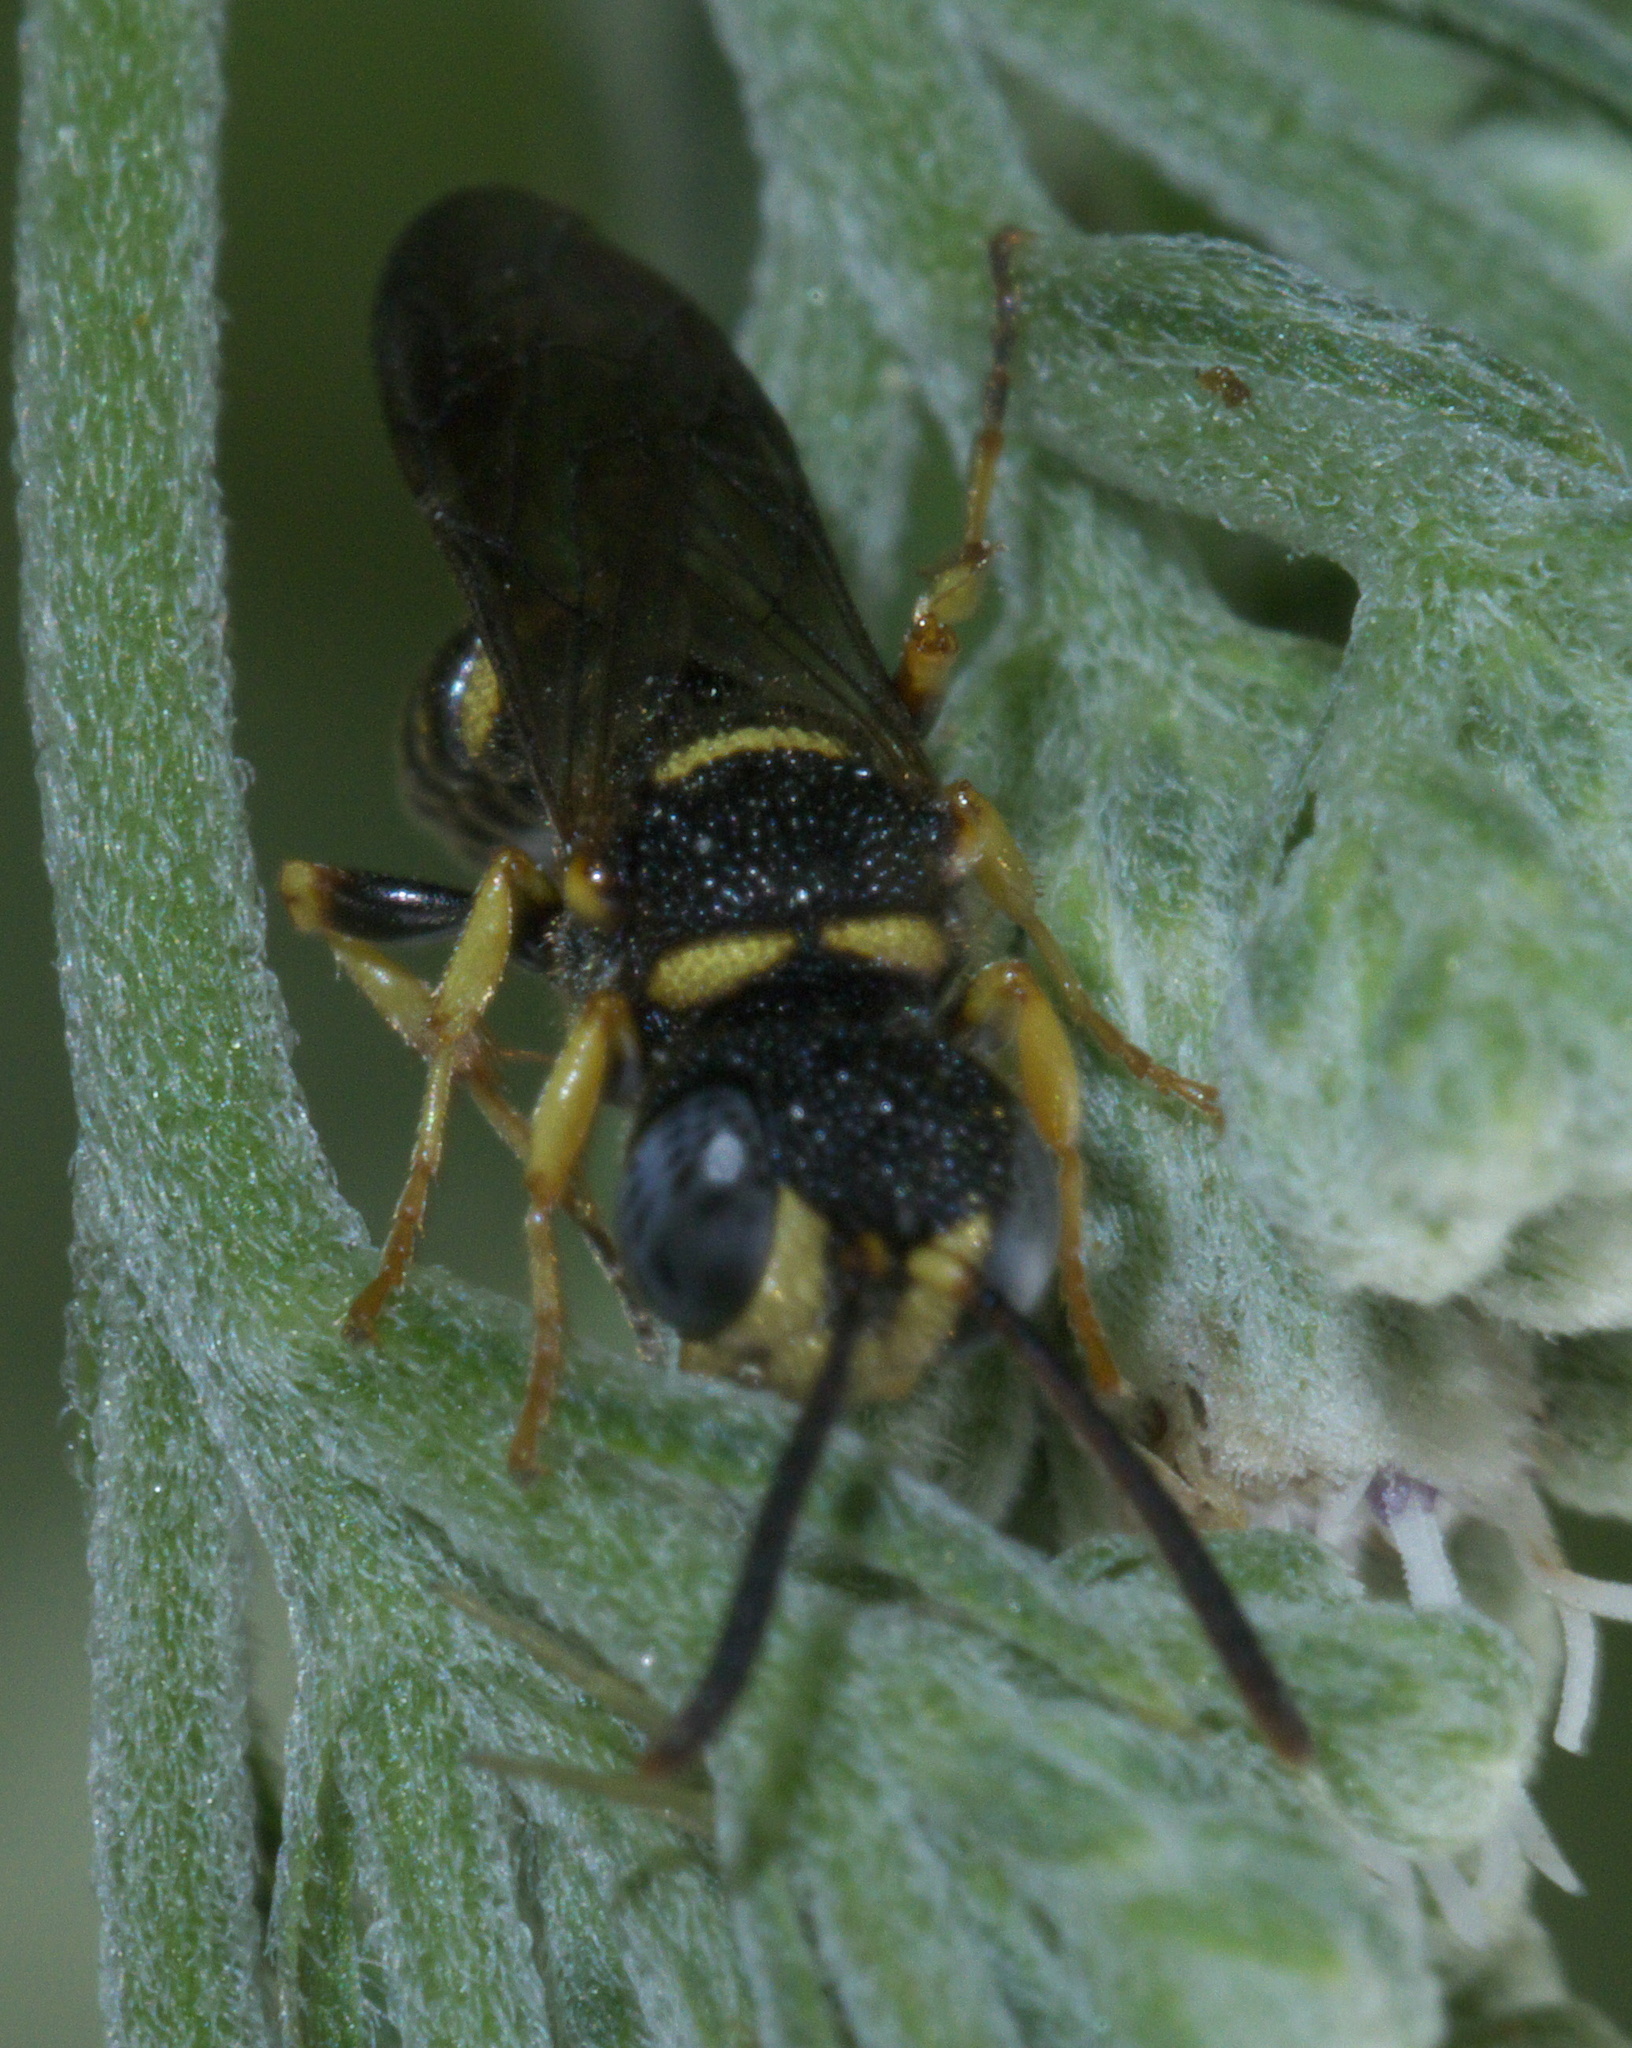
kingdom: Animalia
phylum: Arthropoda
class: Insecta
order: Hymenoptera
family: Crabronidae
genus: Cerceris
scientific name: Cerceris kennicottii
